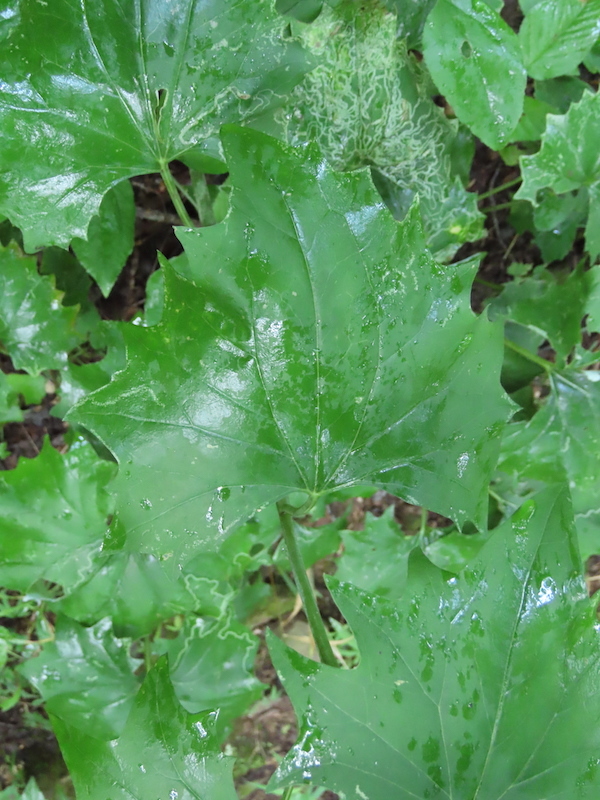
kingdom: Plantae
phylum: Tracheophyta
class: Magnoliopsida
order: Asterales
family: Asteraceae
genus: Arnoglossum
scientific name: Arnoglossum atriplicifolium
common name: Pale indian-plantain
